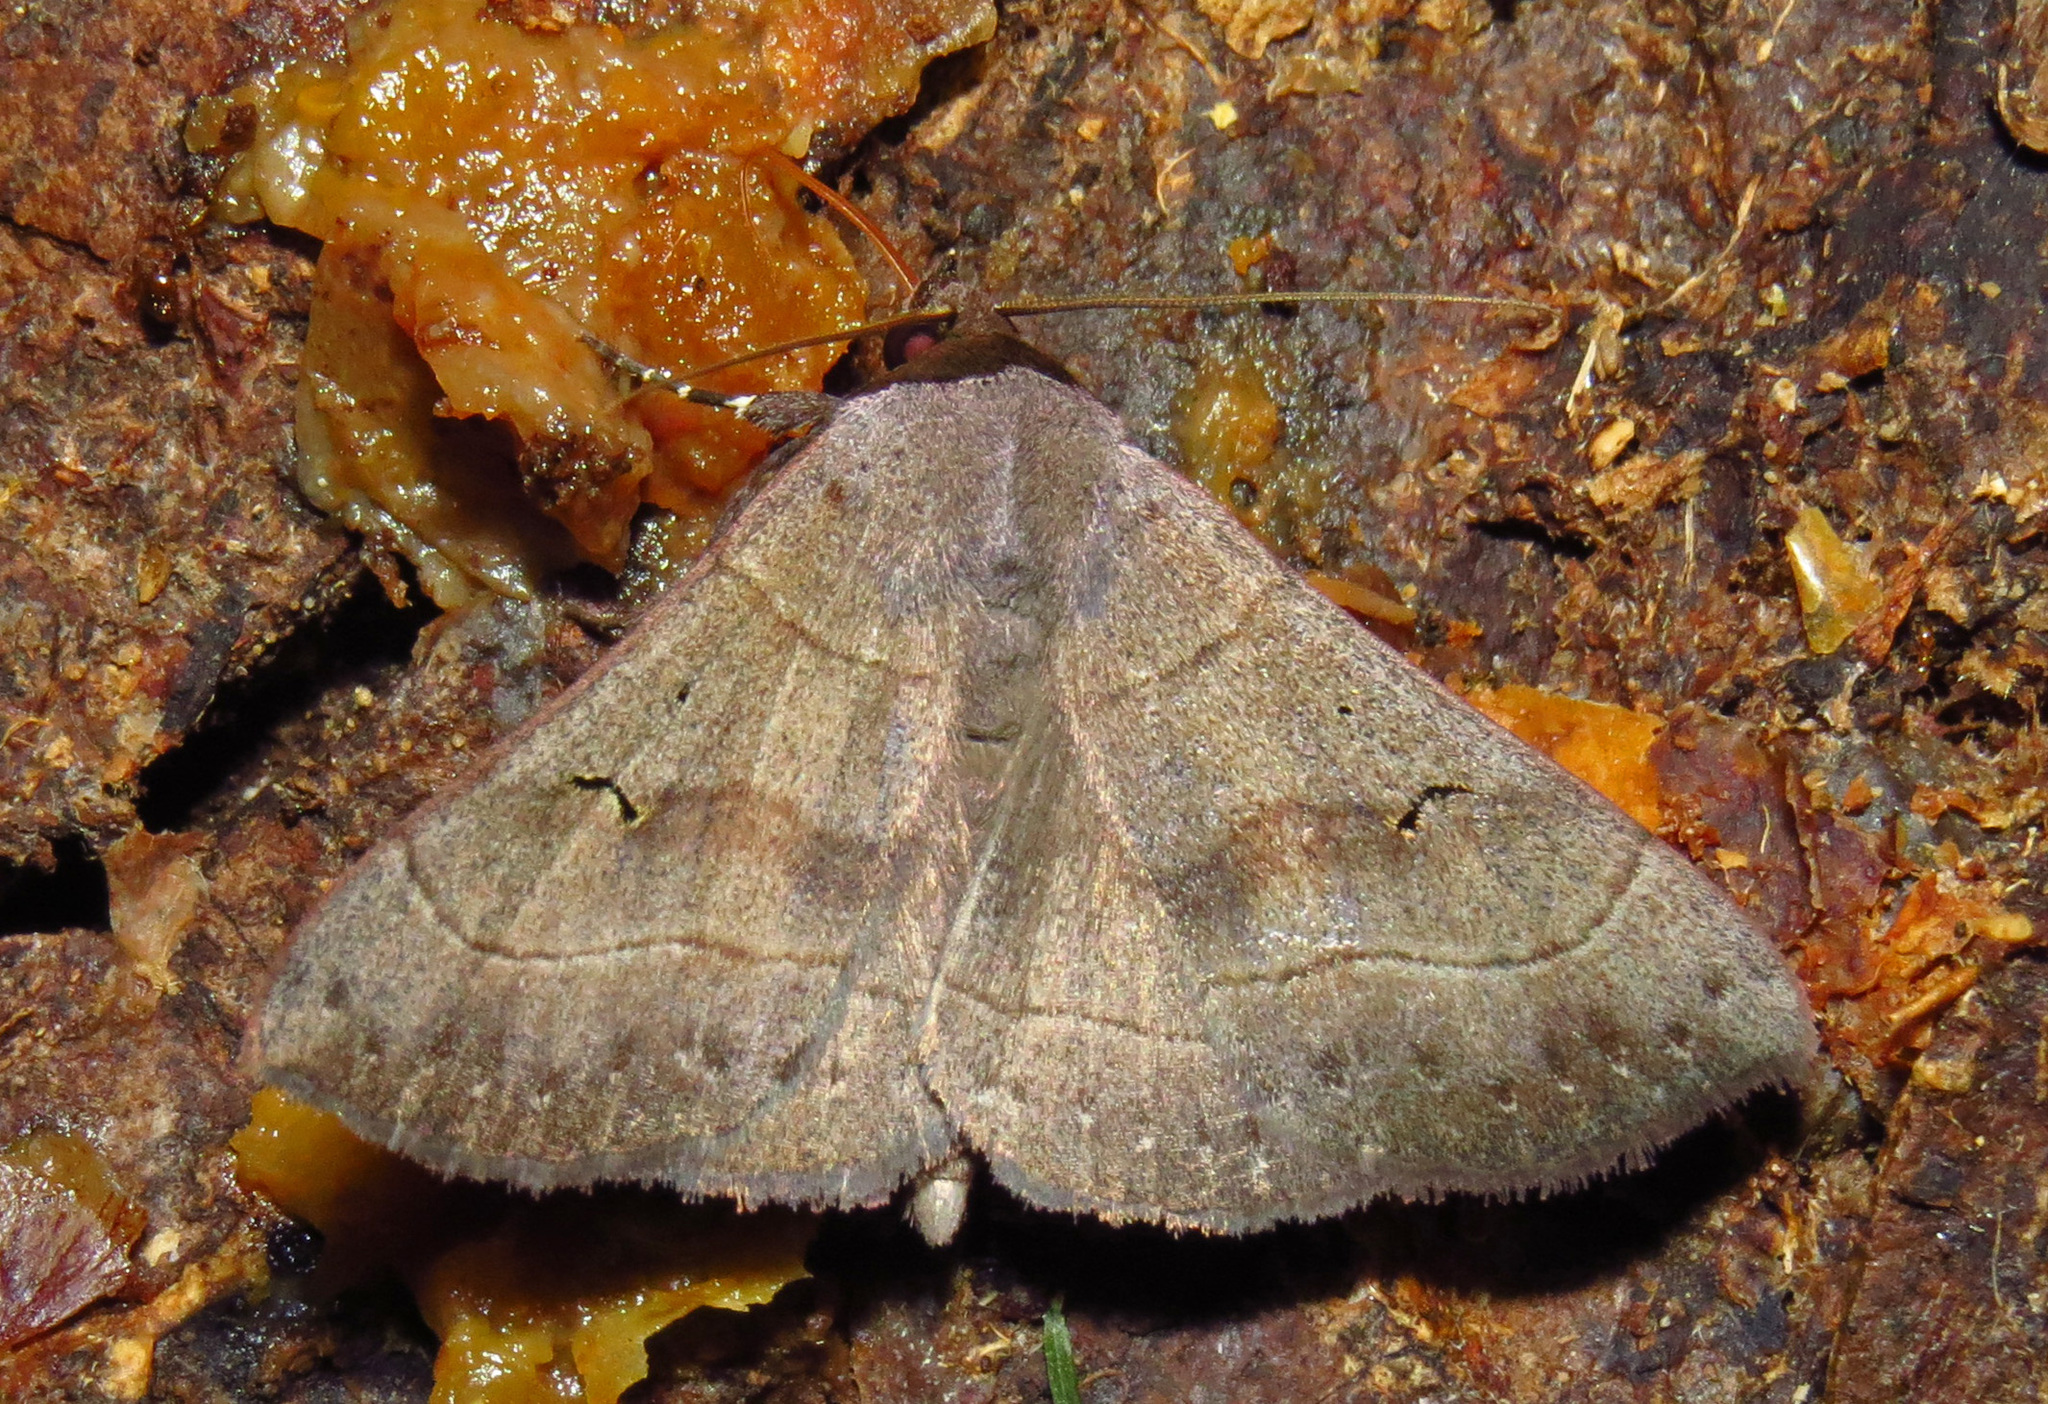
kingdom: Animalia
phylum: Arthropoda
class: Insecta
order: Lepidoptera
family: Erebidae
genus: Panopoda
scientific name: Panopoda carneicosta
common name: Brown panopoda moth
